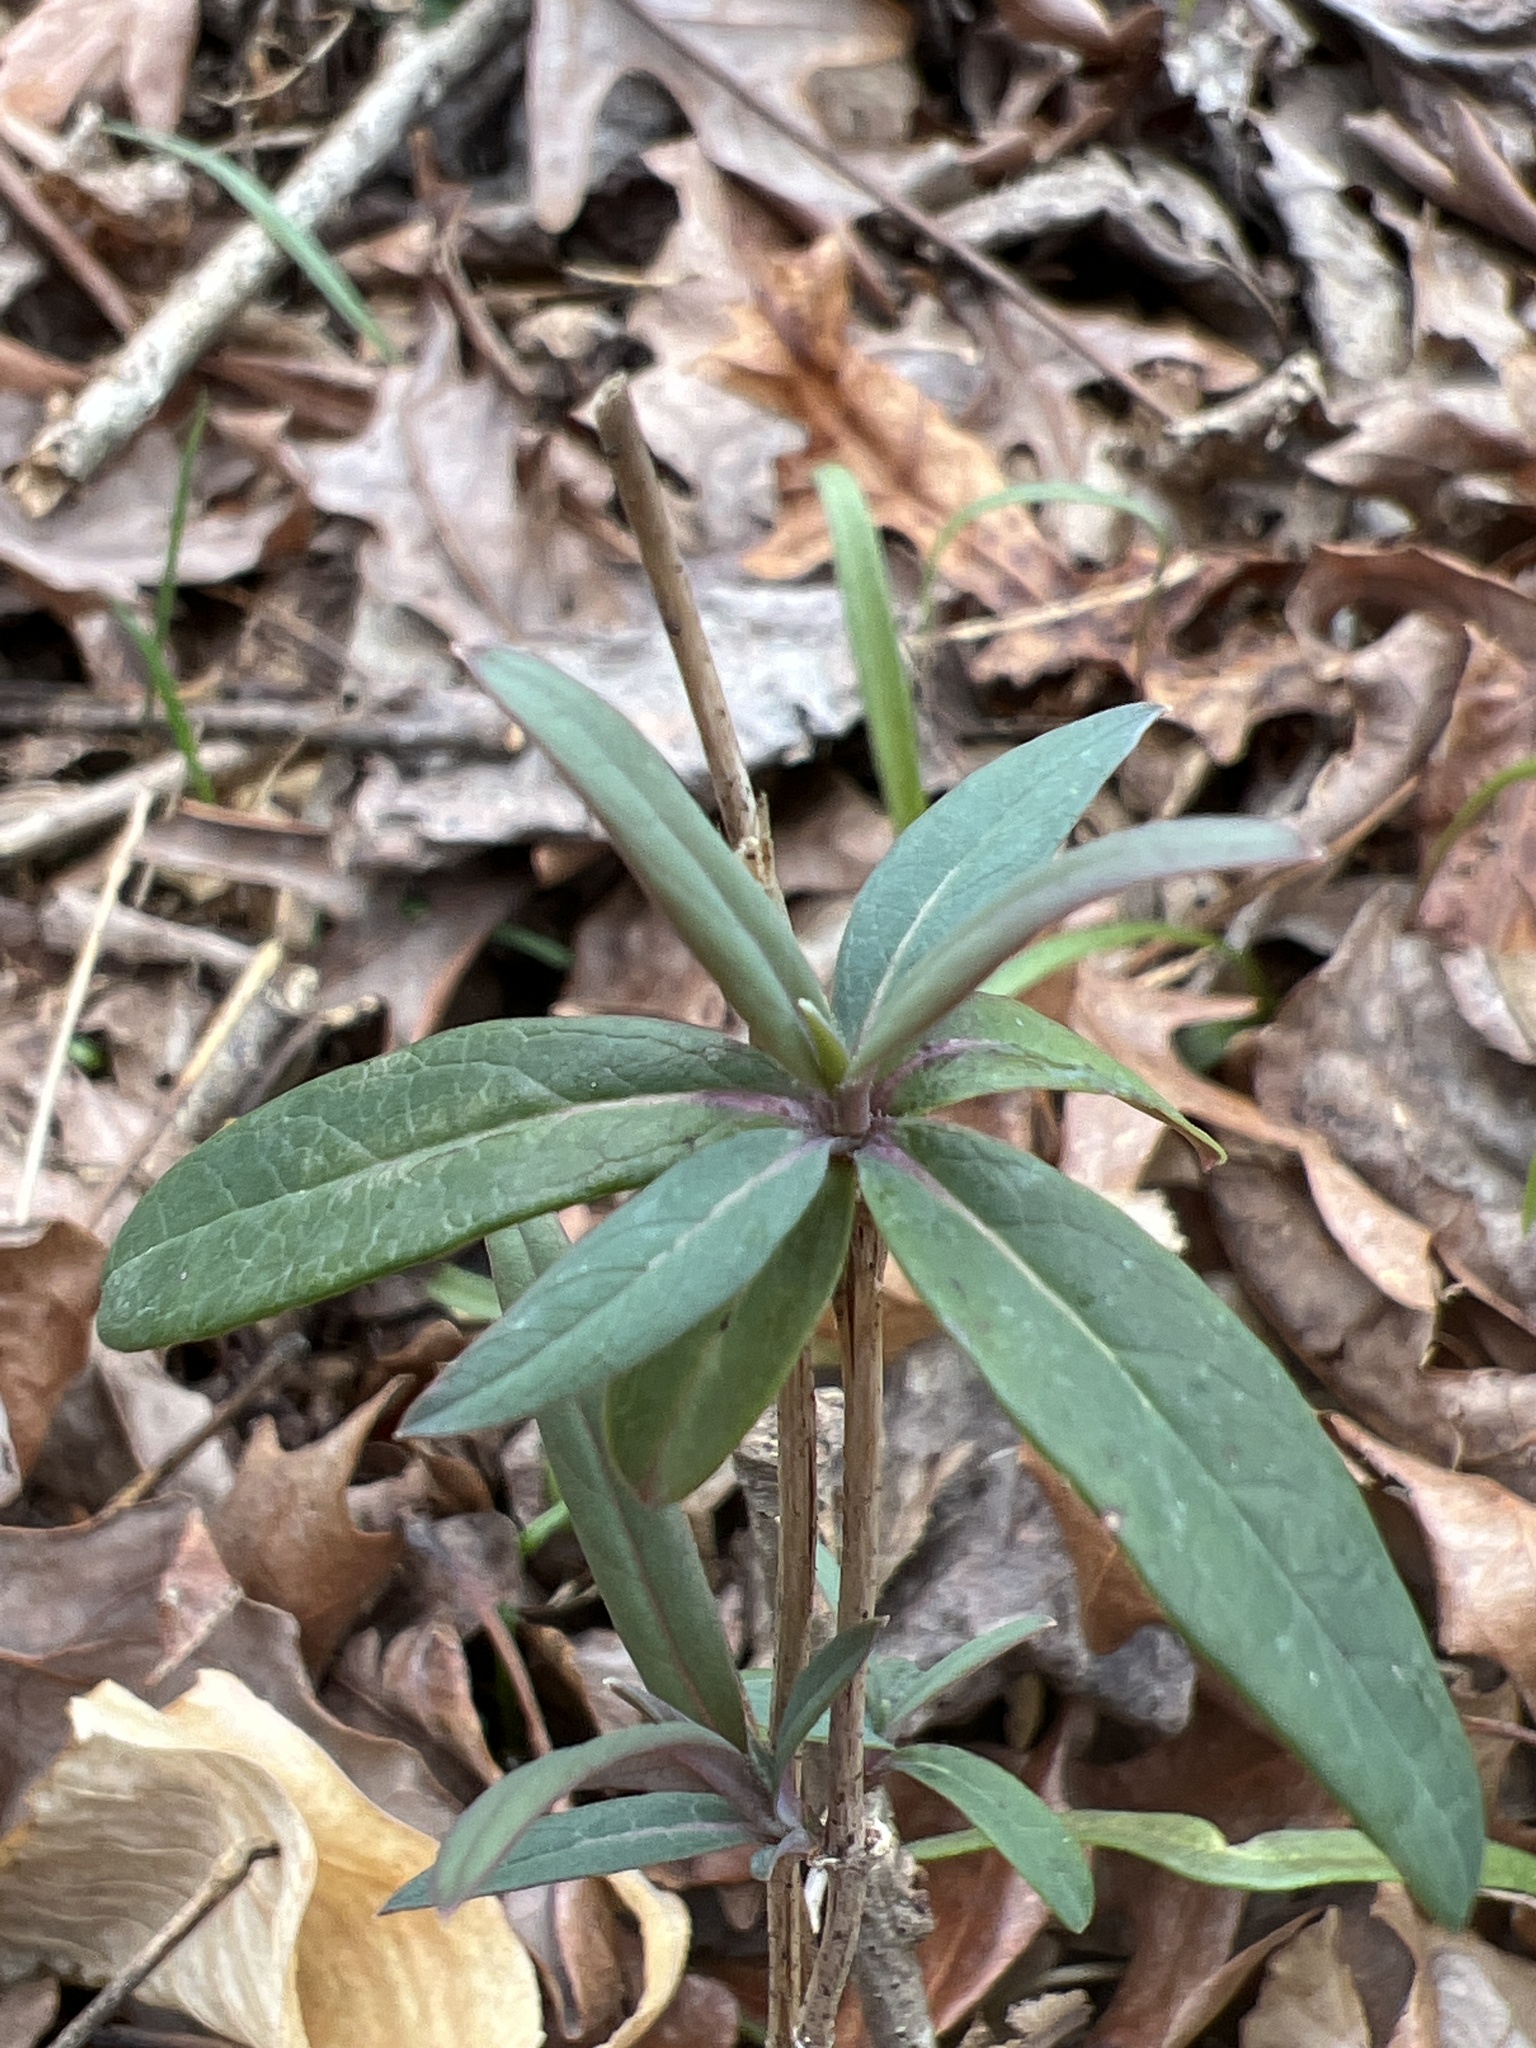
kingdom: Plantae
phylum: Tracheophyta
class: Magnoliopsida
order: Dipsacales
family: Caprifoliaceae
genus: Lonicera
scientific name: Lonicera sempervirens
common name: Coral honeysuckle
